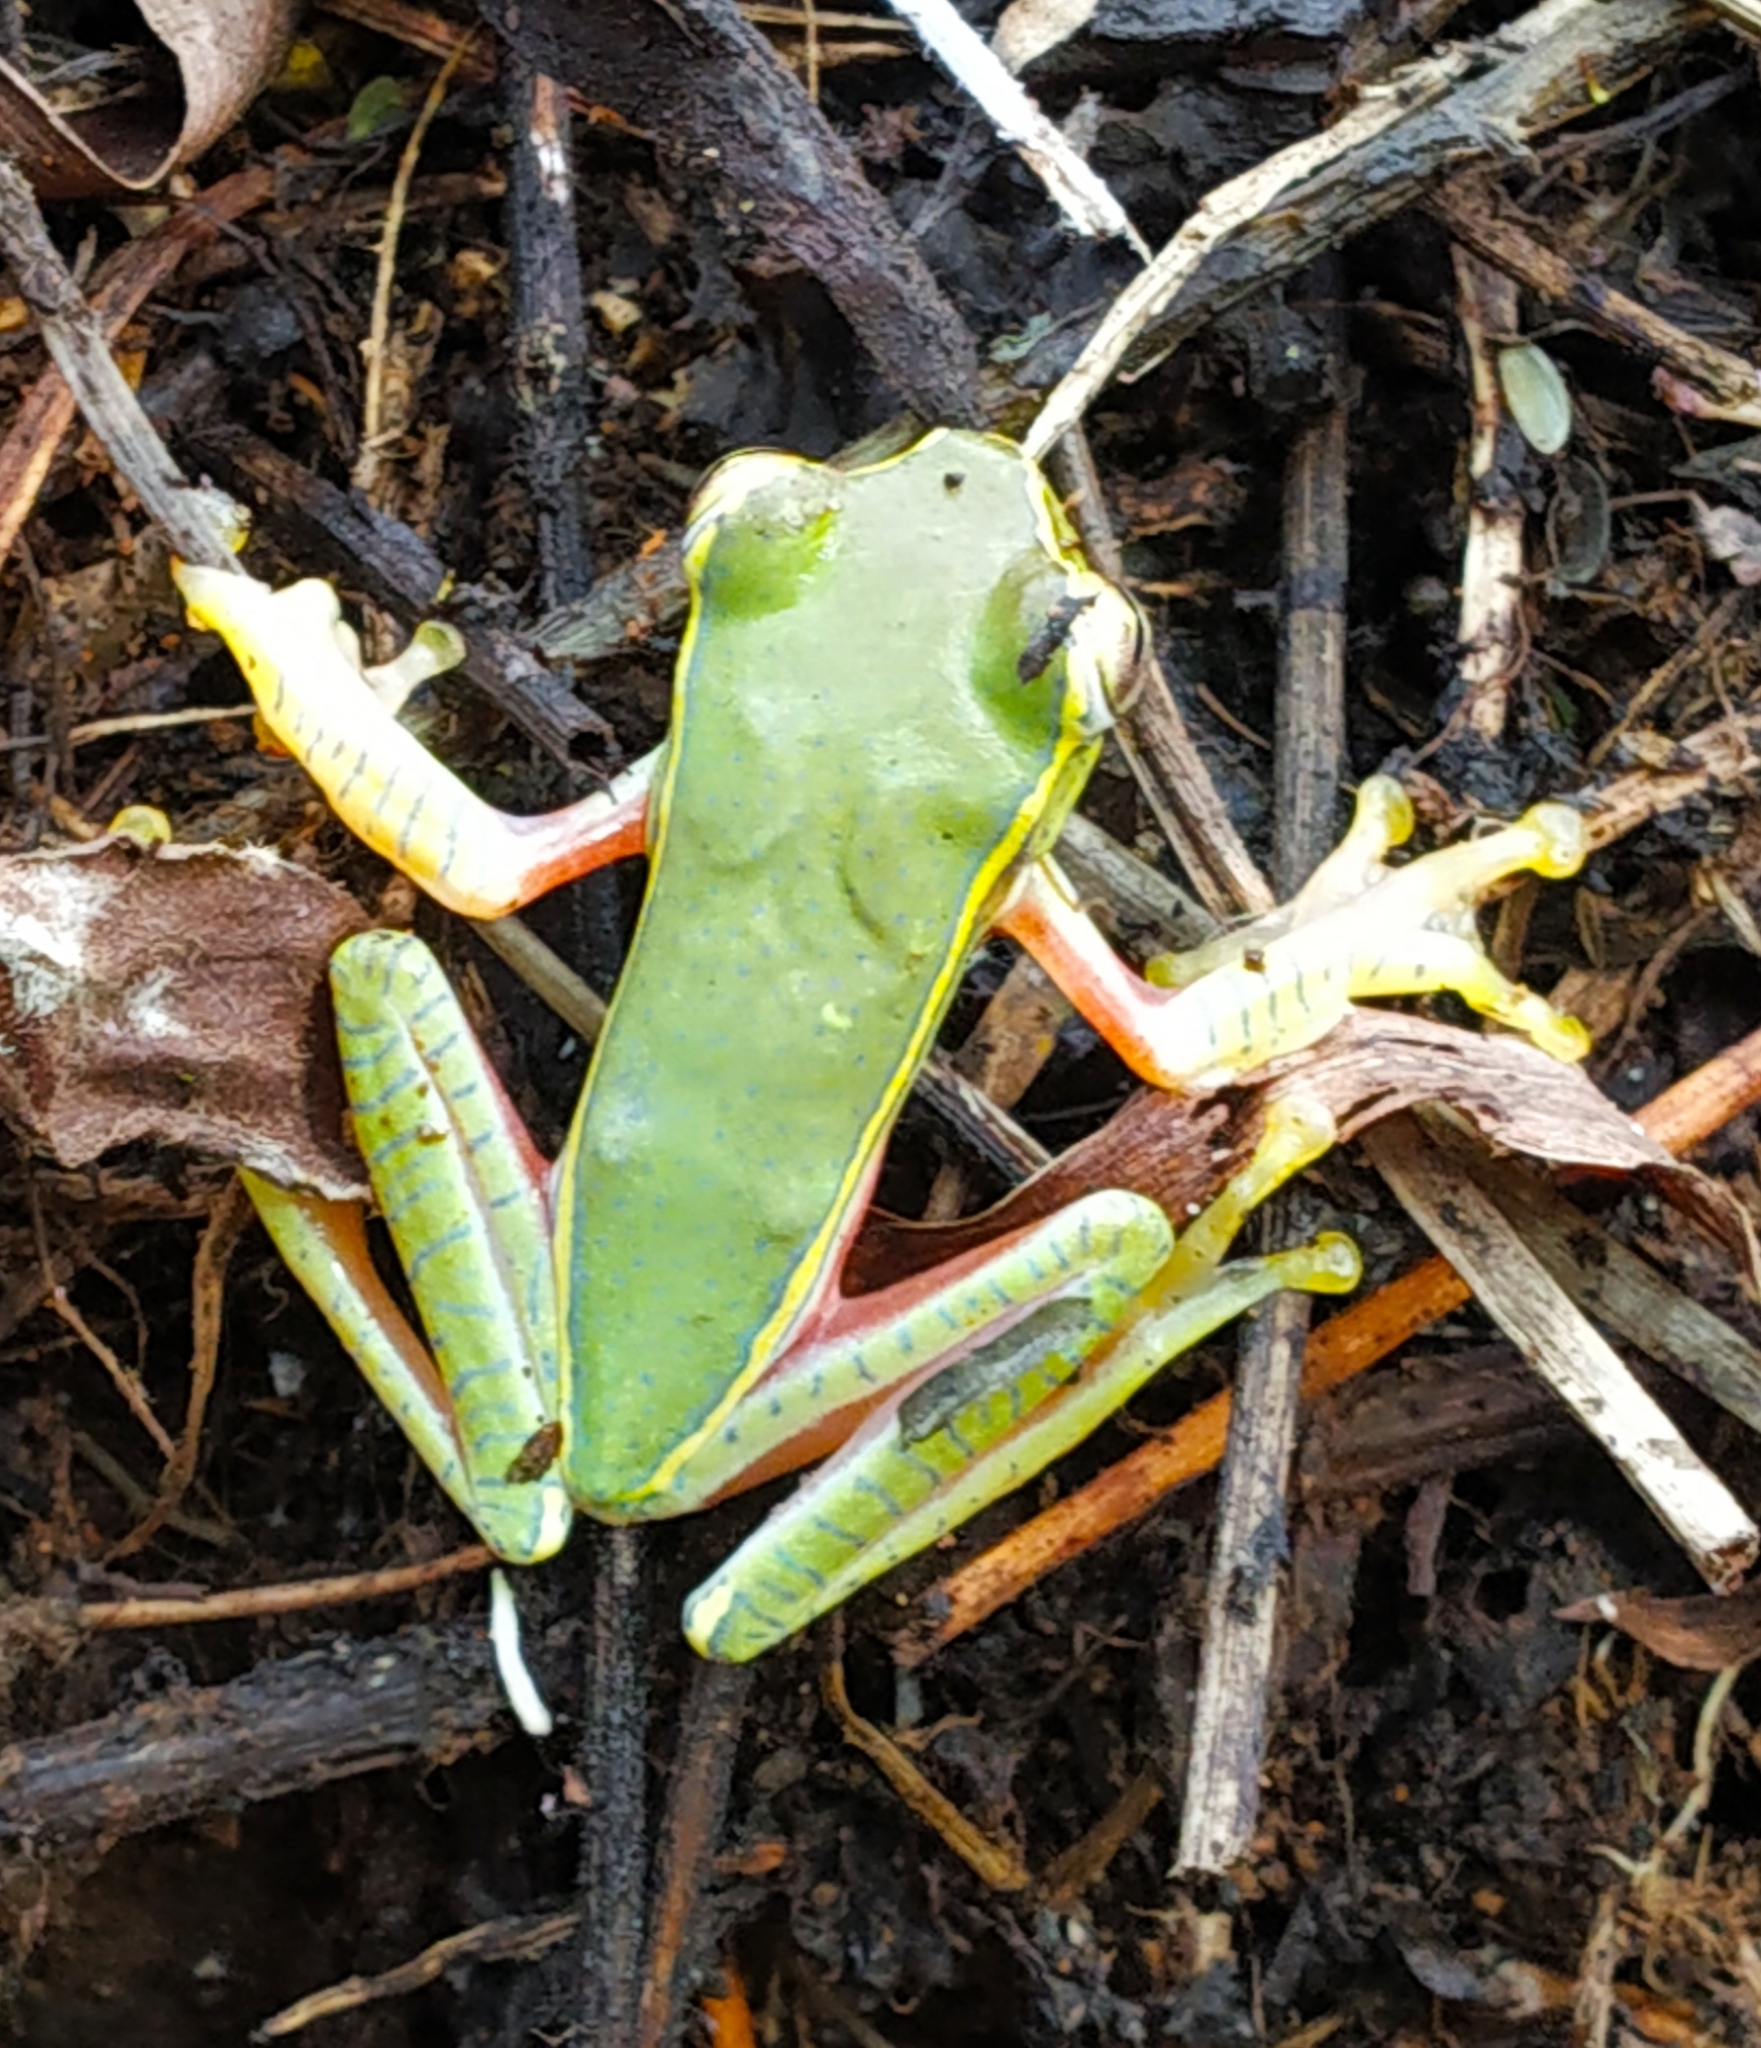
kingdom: Animalia
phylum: Chordata
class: Amphibia
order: Anura
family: Rhacophoridae
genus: Rhacophorus
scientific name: Rhacophorus lateralis
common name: Boulenger's tree frog
